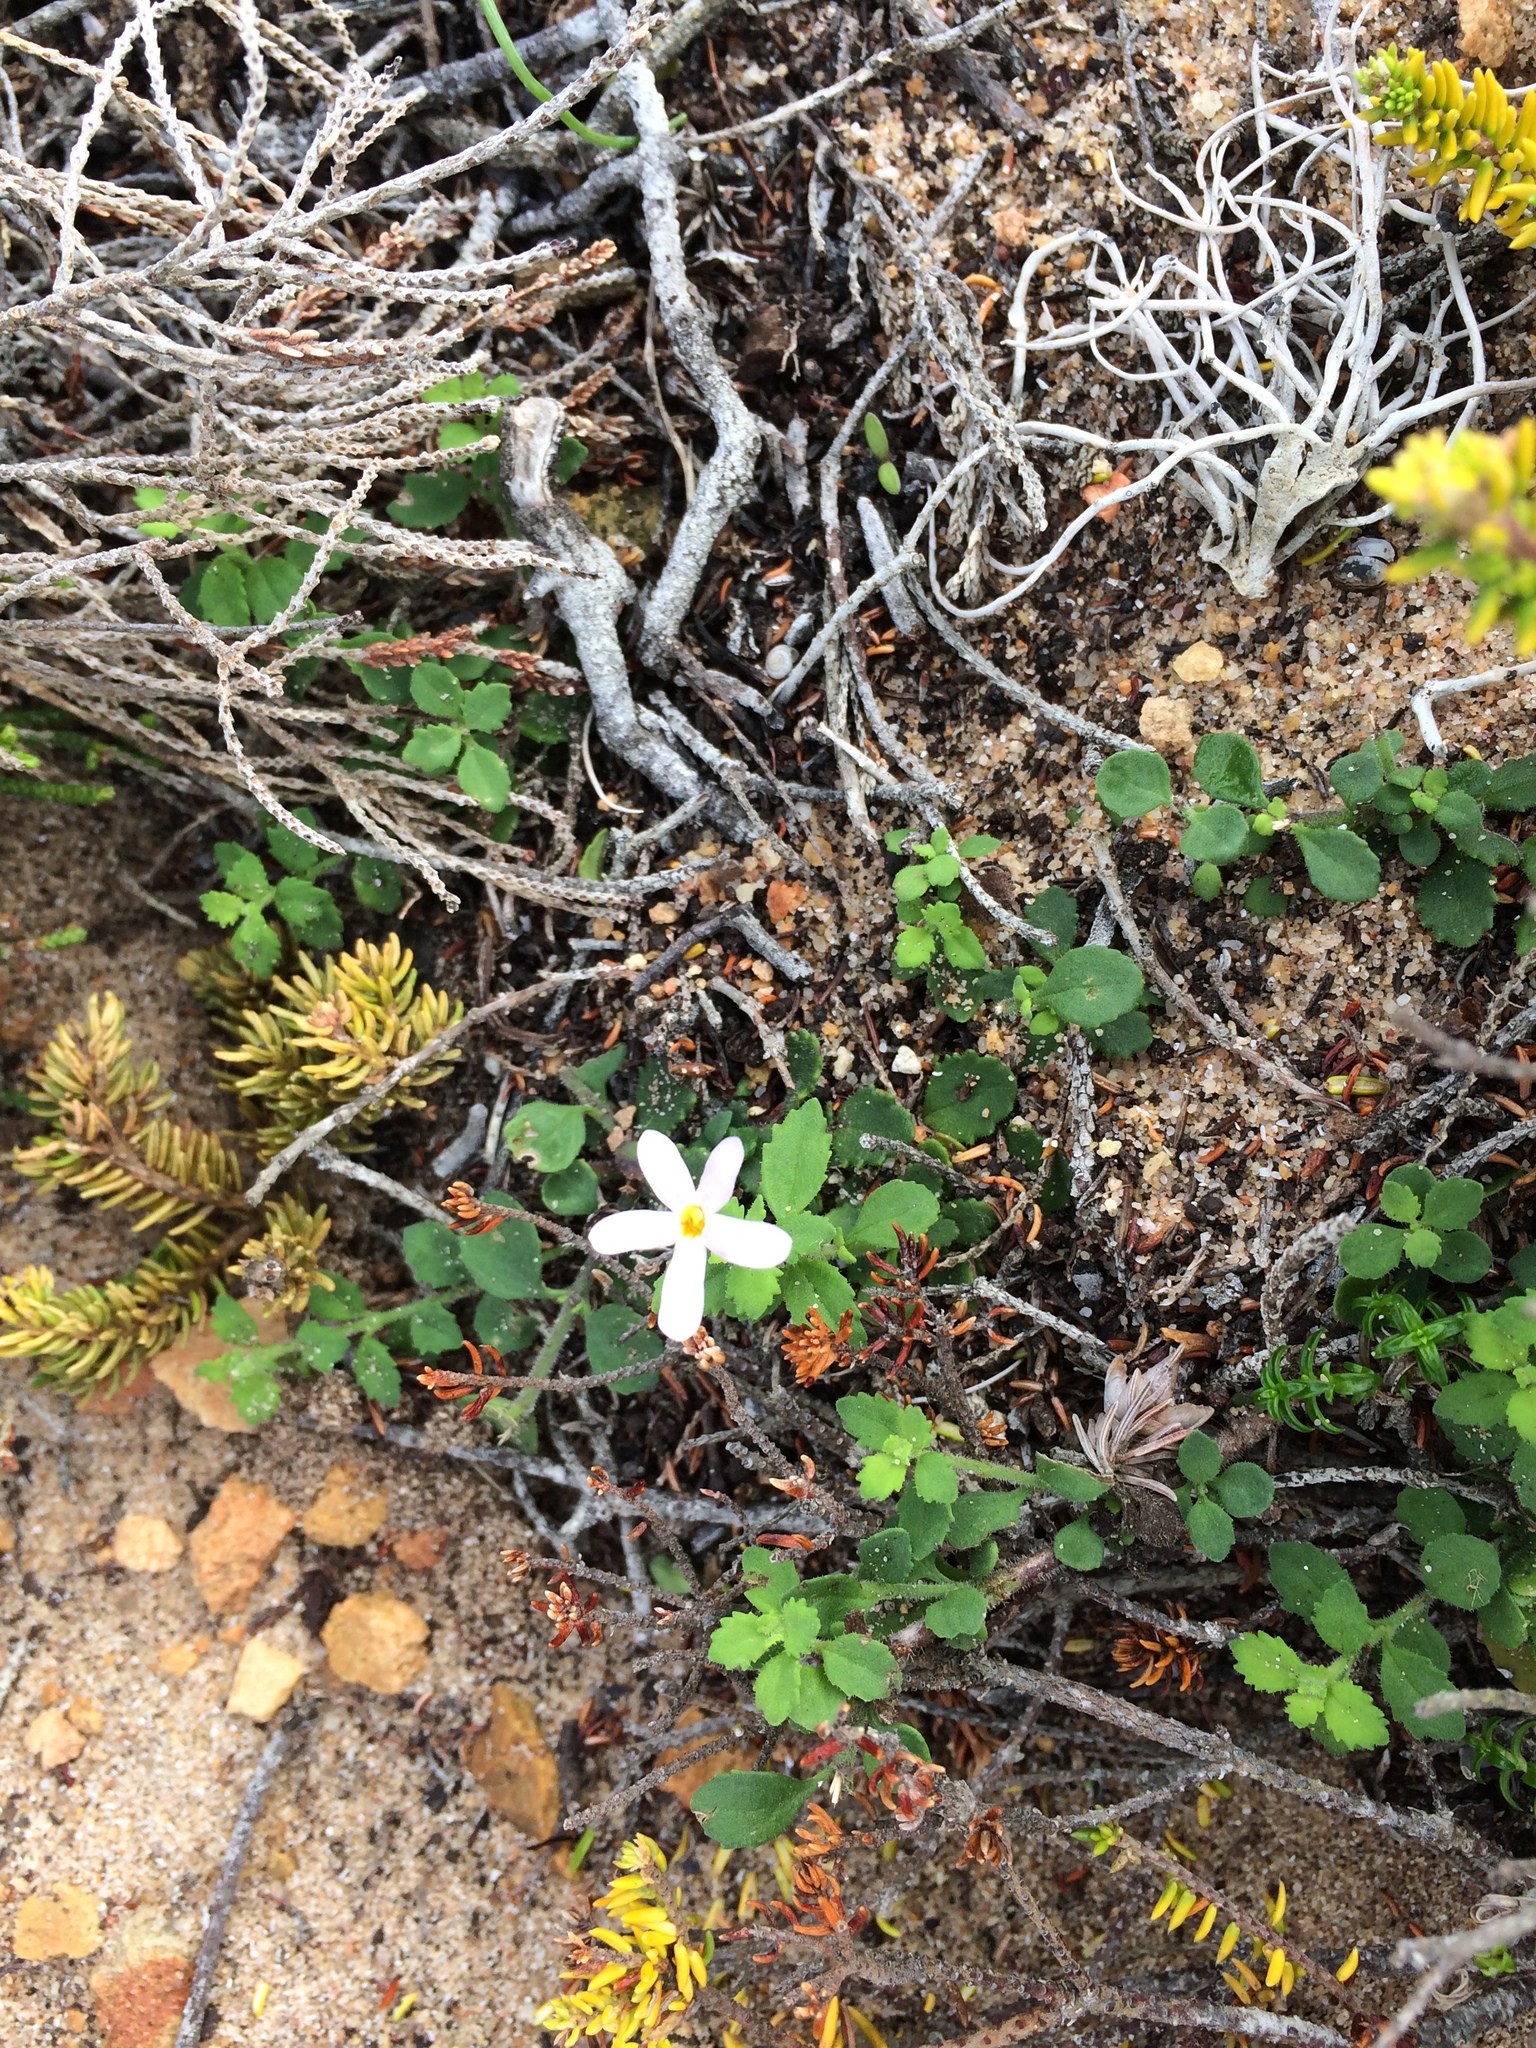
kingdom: Plantae
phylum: Tracheophyta
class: Magnoliopsida
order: Lamiales
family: Scrophulariaceae
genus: Chaenostoma
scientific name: Chaenostoma hispidum
